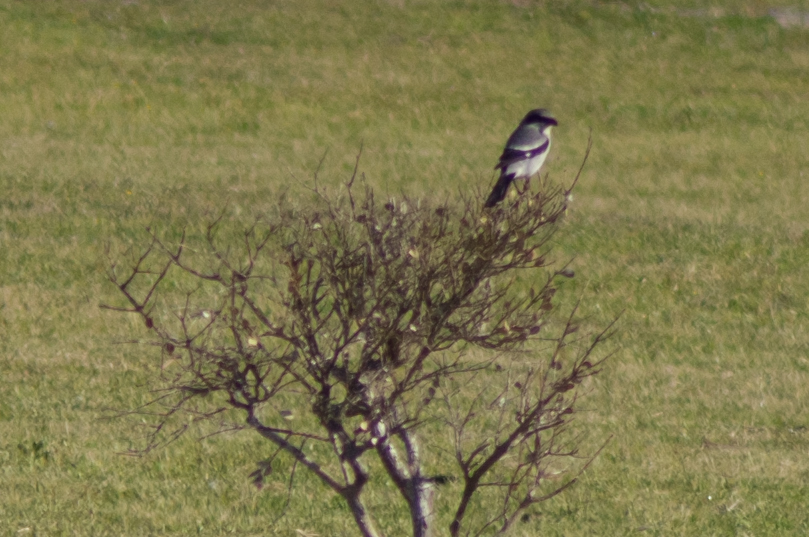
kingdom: Animalia
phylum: Chordata
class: Aves
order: Passeriformes
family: Laniidae
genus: Lanius
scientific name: Lanius ludovicianus
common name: Loggerhead shrike
